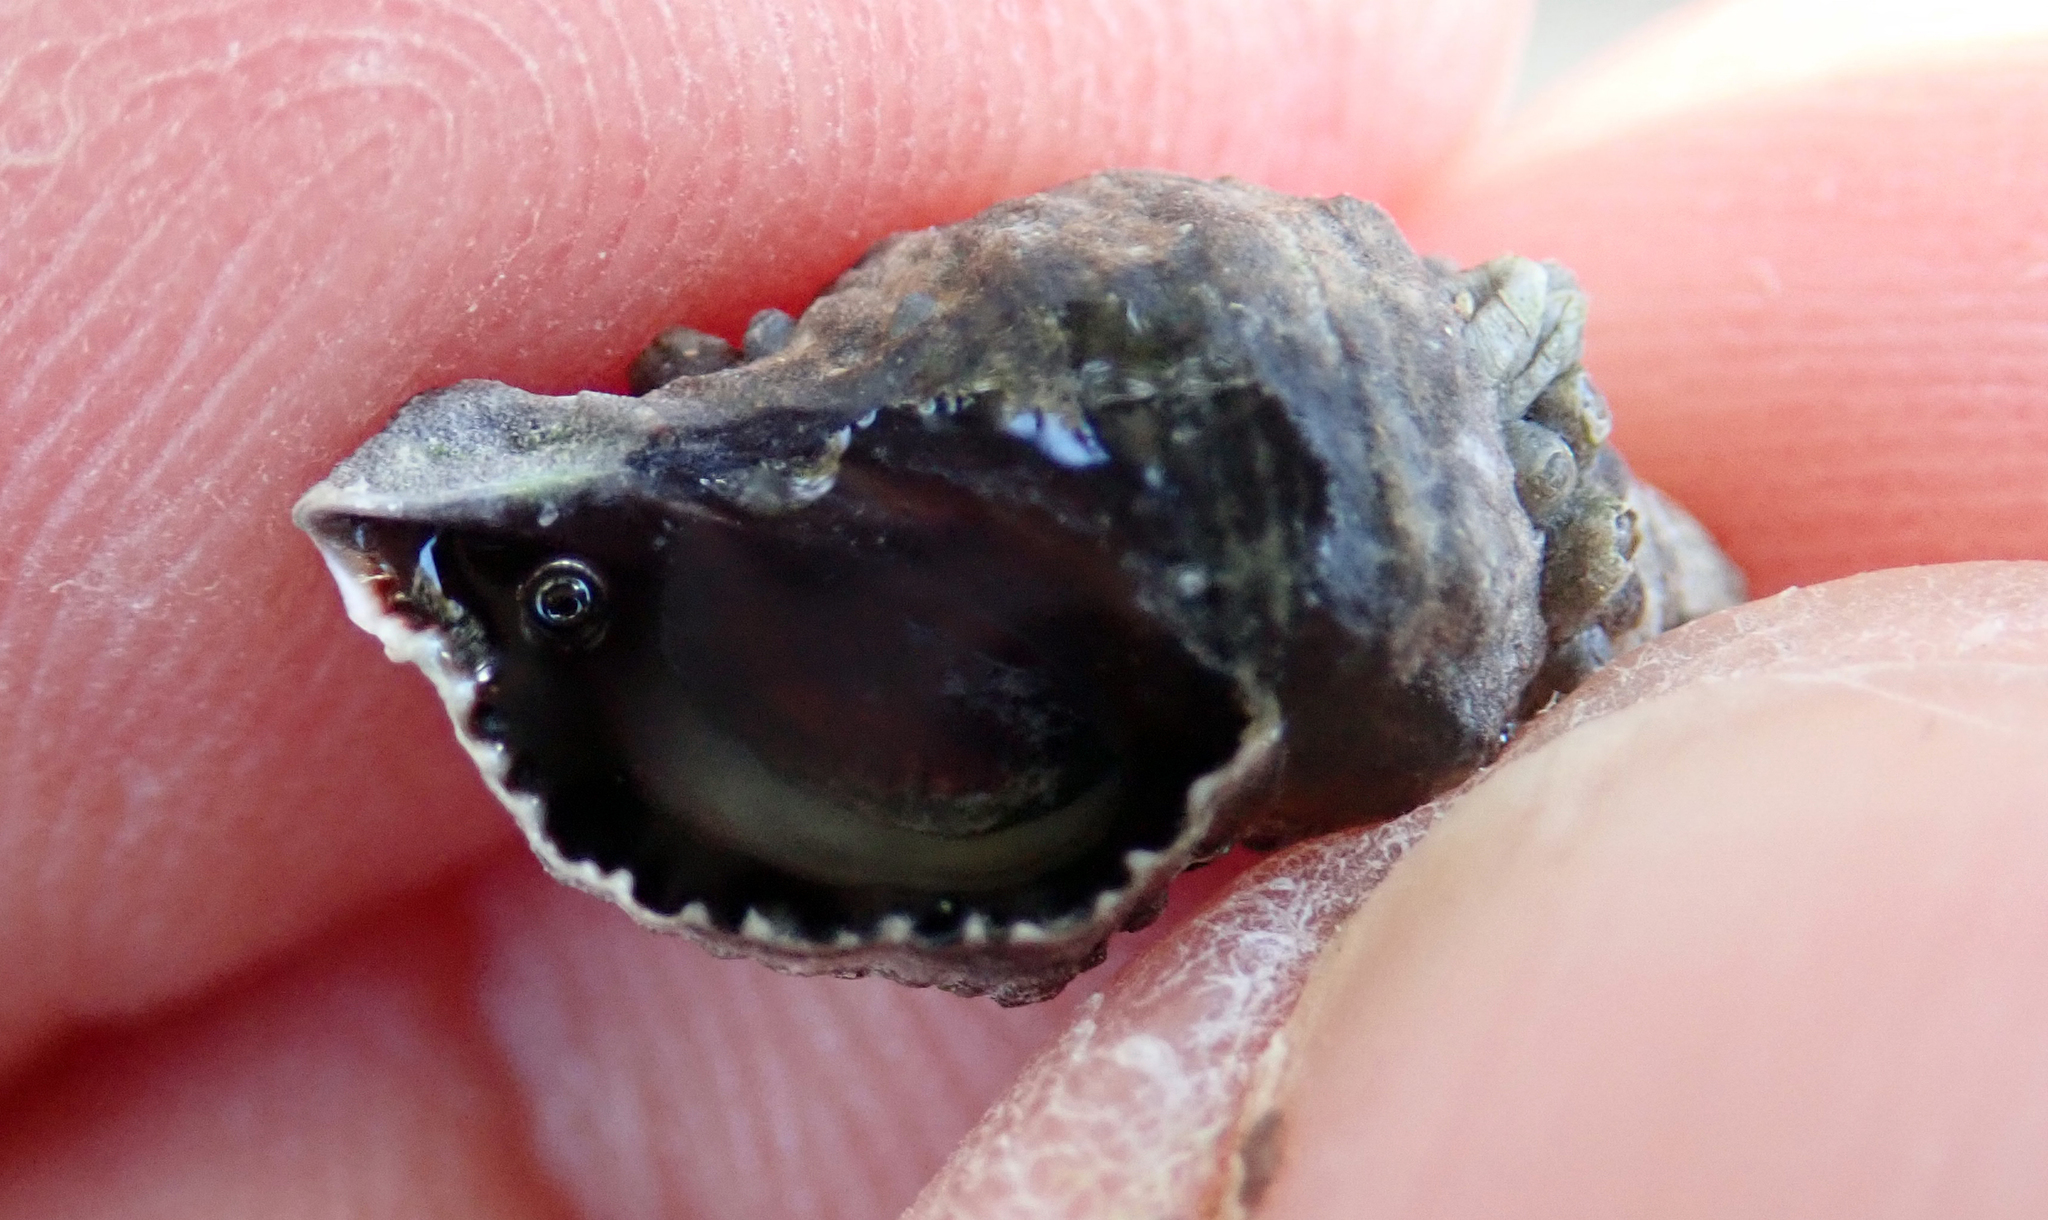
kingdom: Animalia
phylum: Mollusca
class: Gastropoda
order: Neogastropoda
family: Muricidae
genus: Haustrum
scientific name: Haustrum scobina
